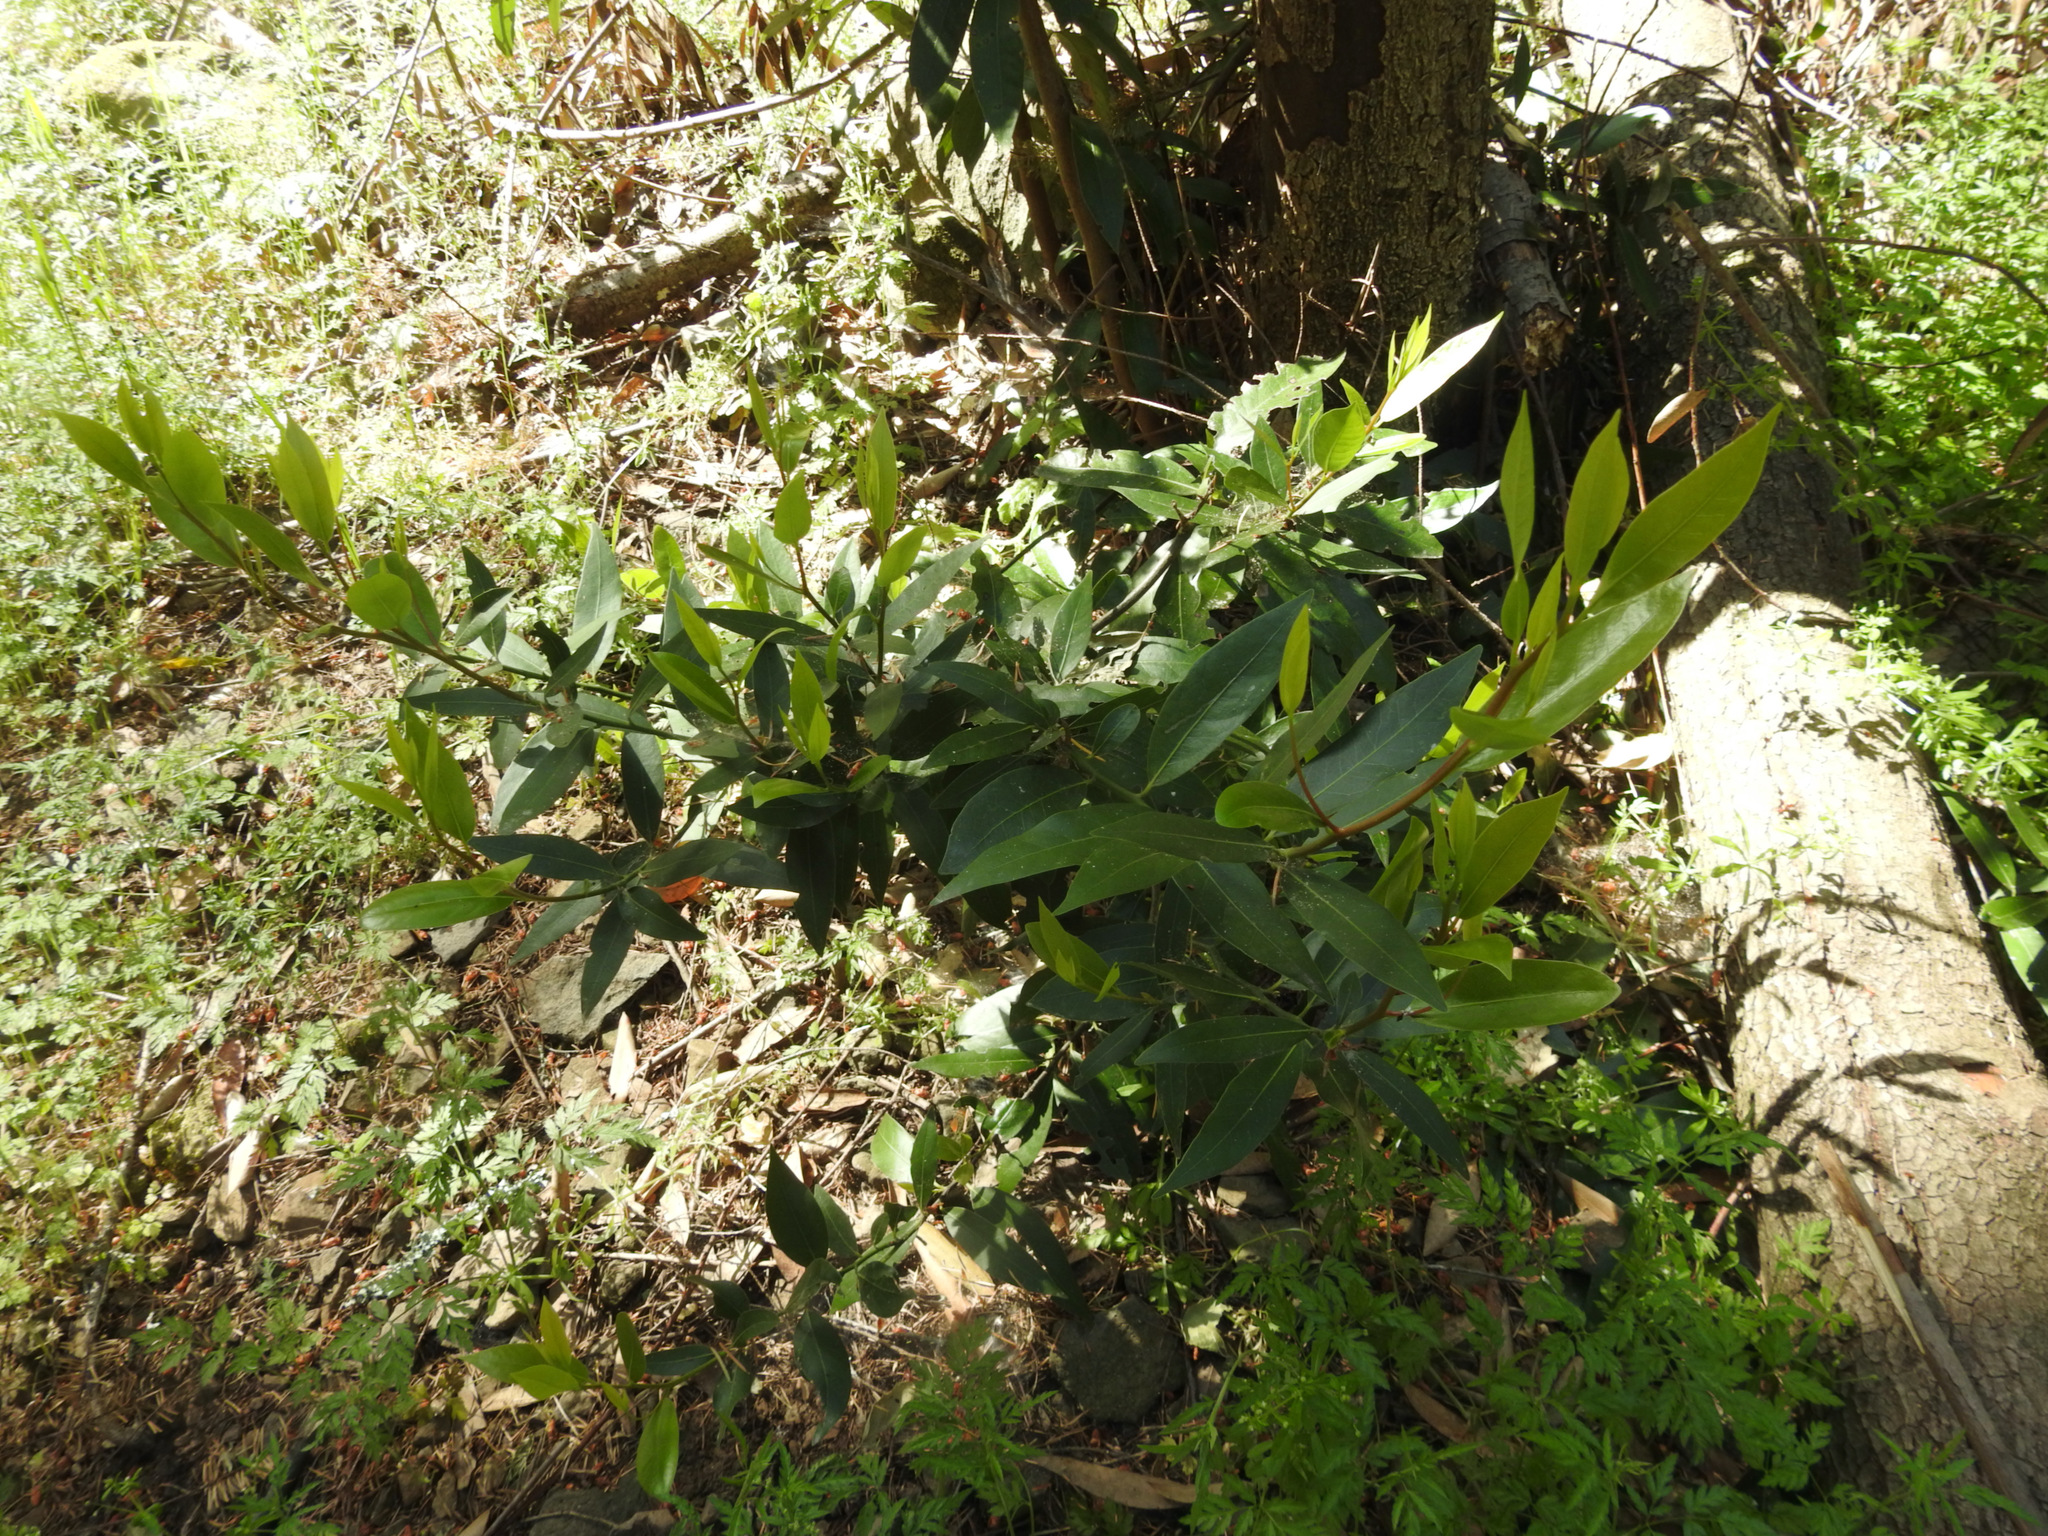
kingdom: Plantae
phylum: Tracheophyta
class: Magnoliopsida
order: Laurales
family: Lauraceae
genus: Umbellularia
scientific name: Umbellularia californica
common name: California bay
